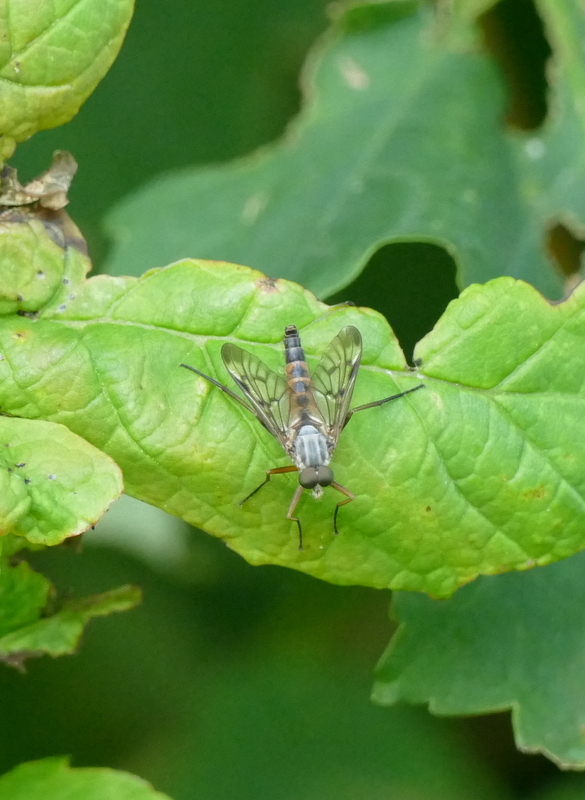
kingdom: Animalia
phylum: Arthropoda
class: Insecta
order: Diptera
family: Rhagionidae
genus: Rhagio
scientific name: Rhagio scolopacea
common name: Downlooker snipefly
